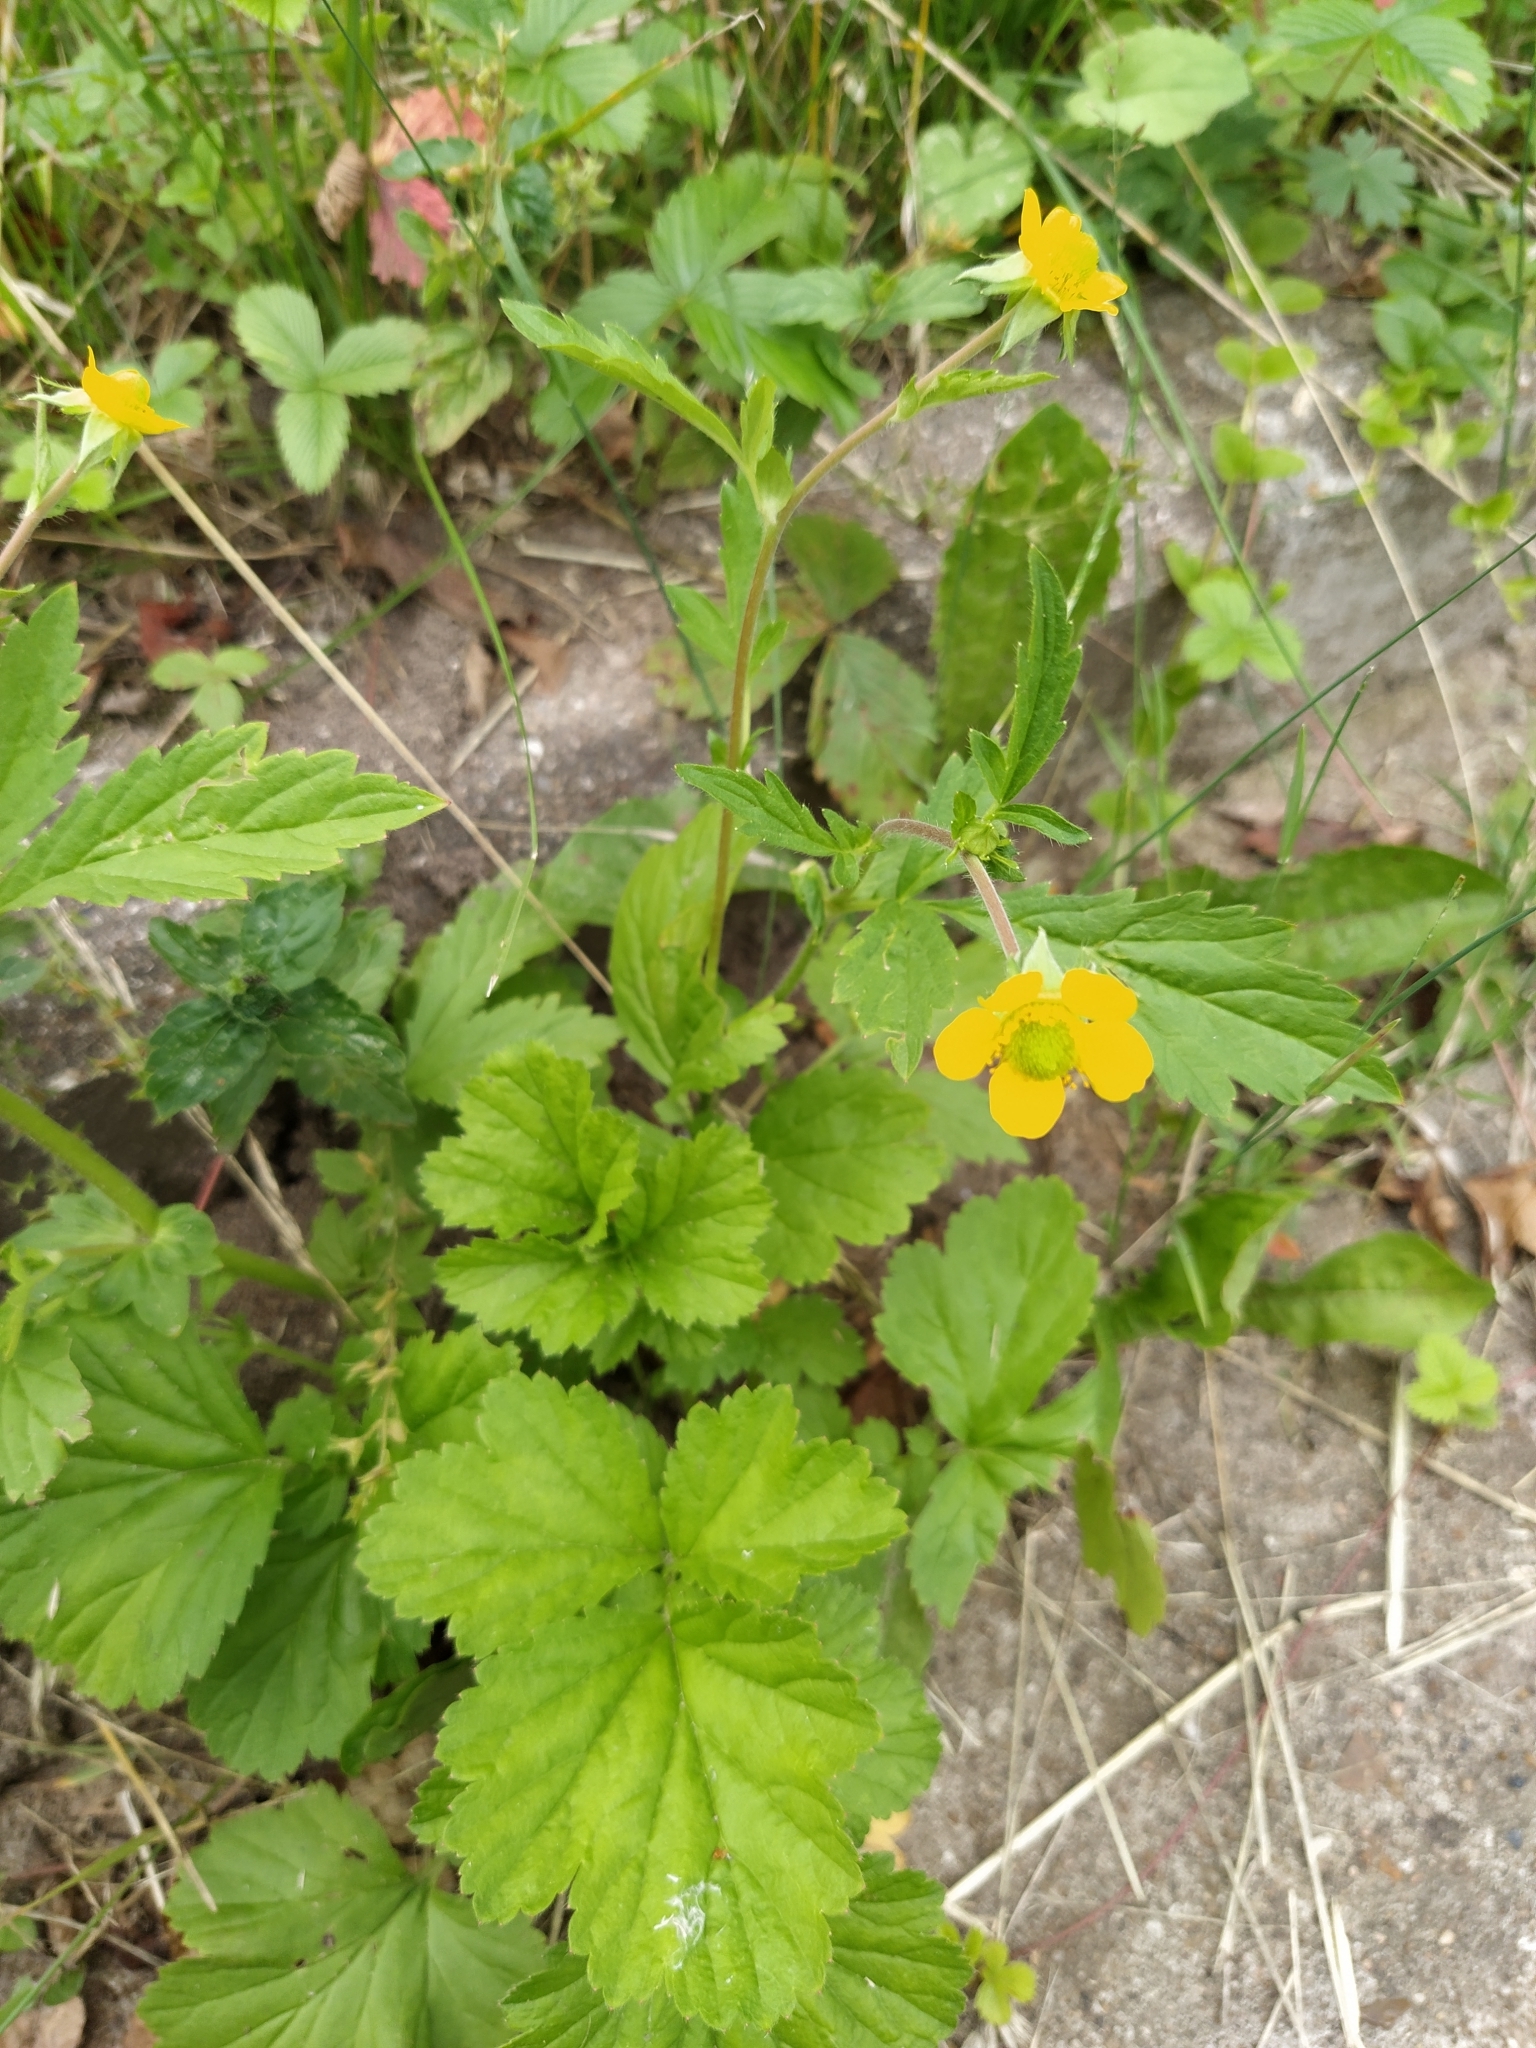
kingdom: Plantae
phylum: Tracheophyta
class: Magnoliopsida
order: Rosales
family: Rosaceae
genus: Geum
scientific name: Geum aleppicum
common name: Yellow avens
